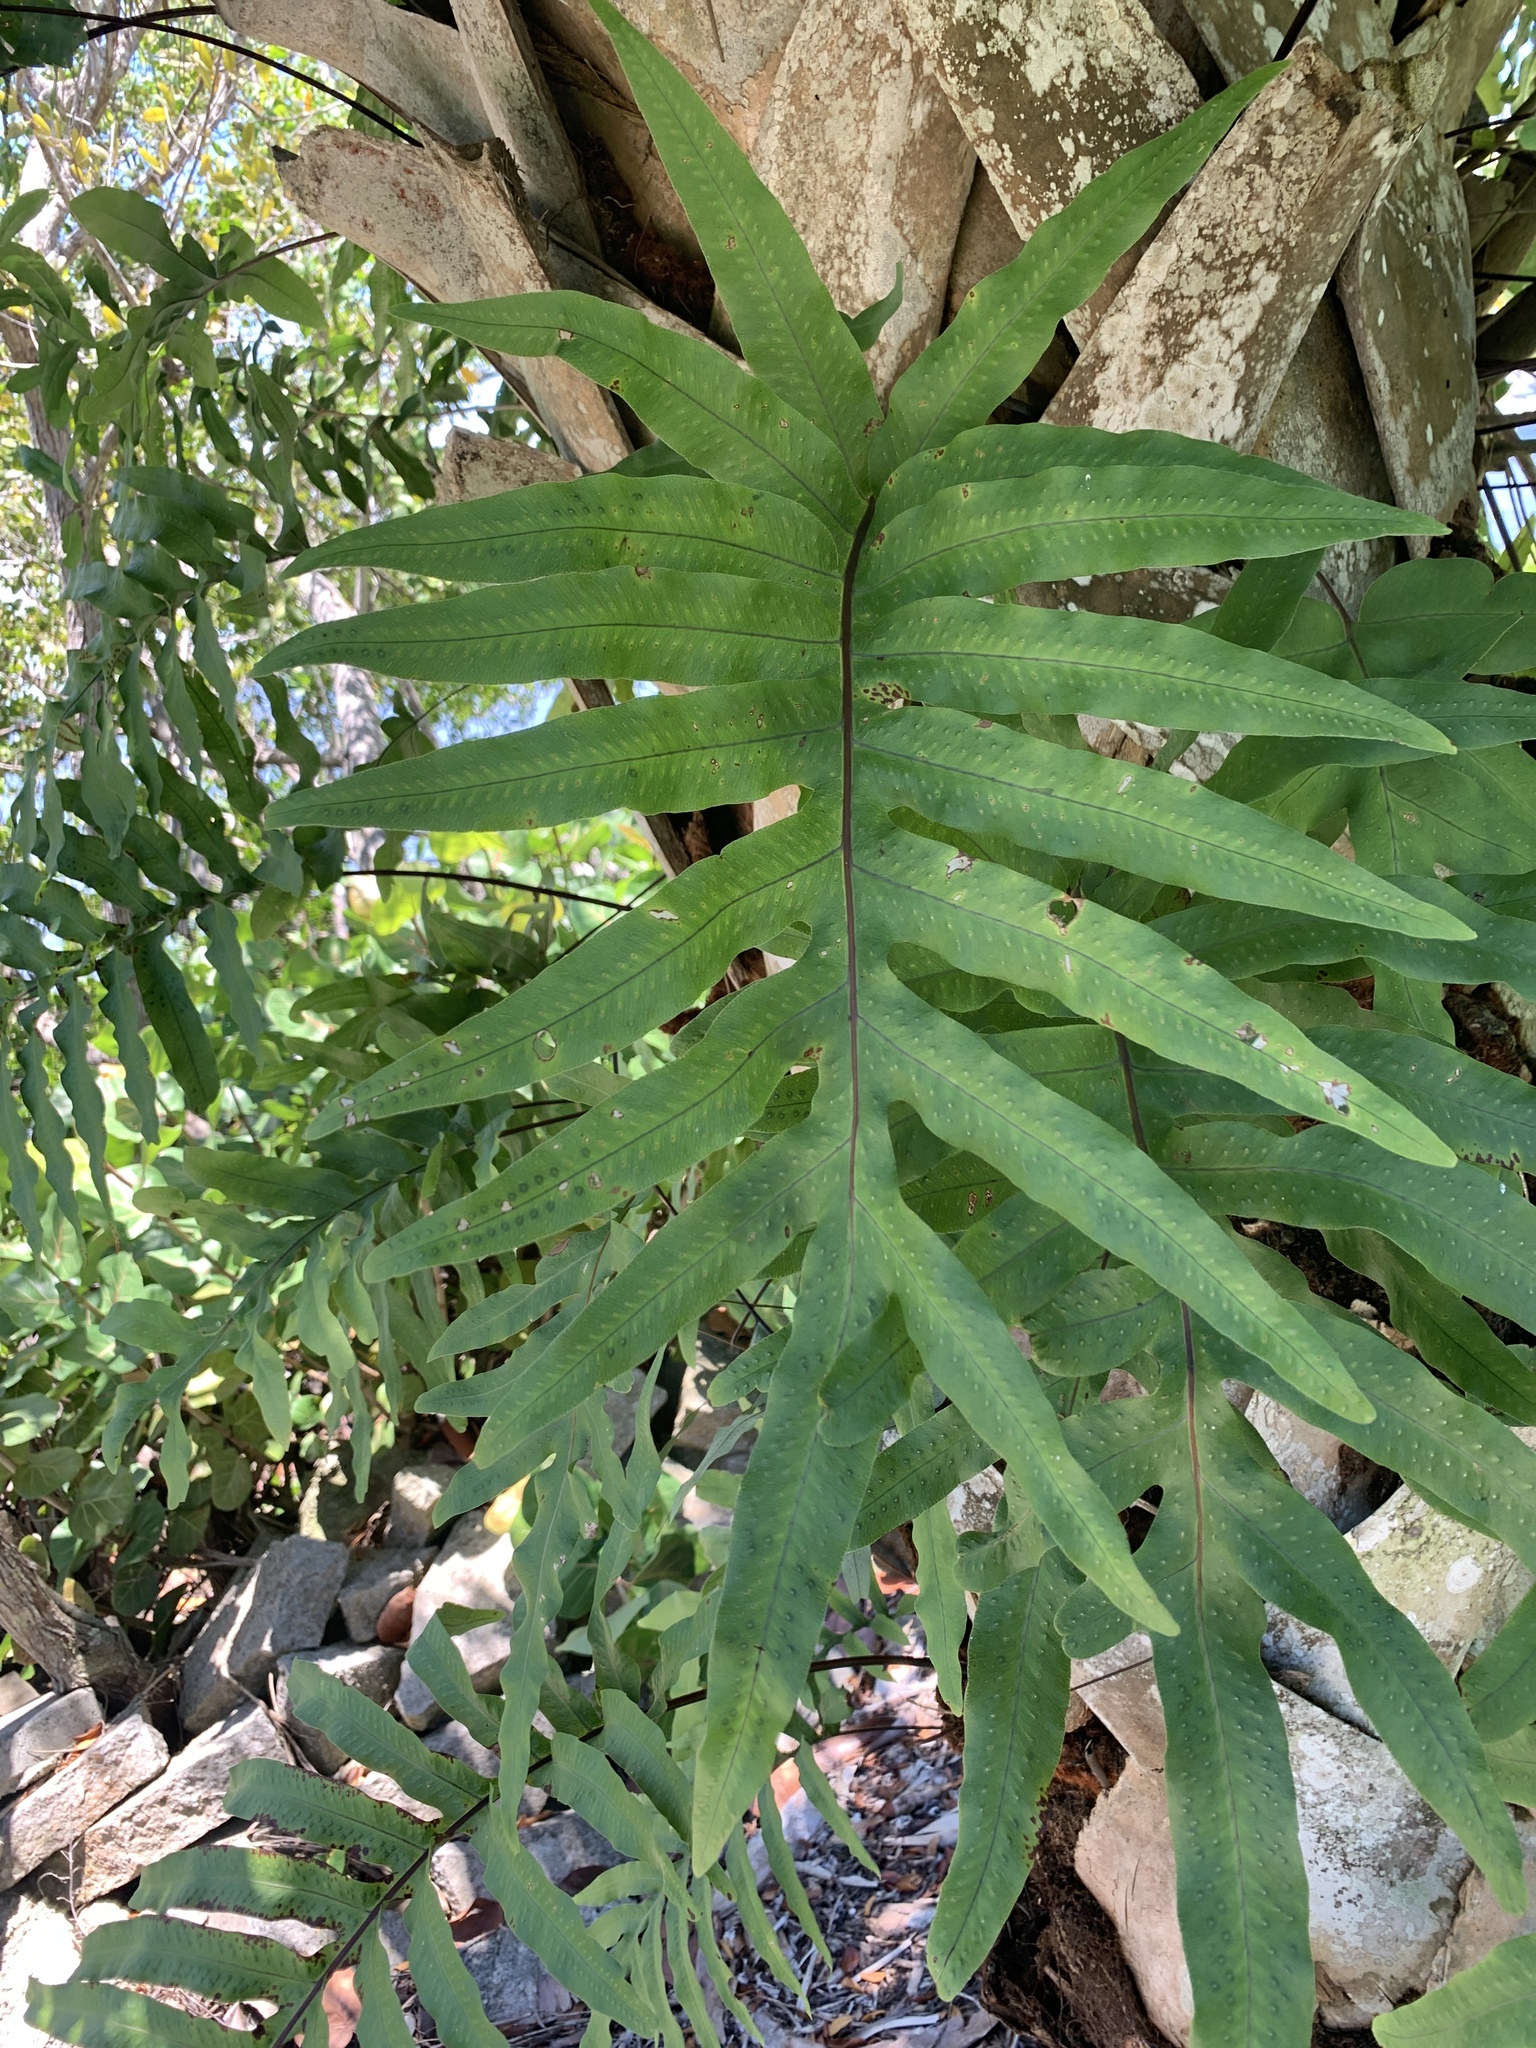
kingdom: Plantae
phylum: Tracheophyta
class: Polypodiopsida
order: Polypodiales
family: Polypodiaceae
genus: Phlebodium
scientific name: Phlebodium aureum
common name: Gold-foot fern
